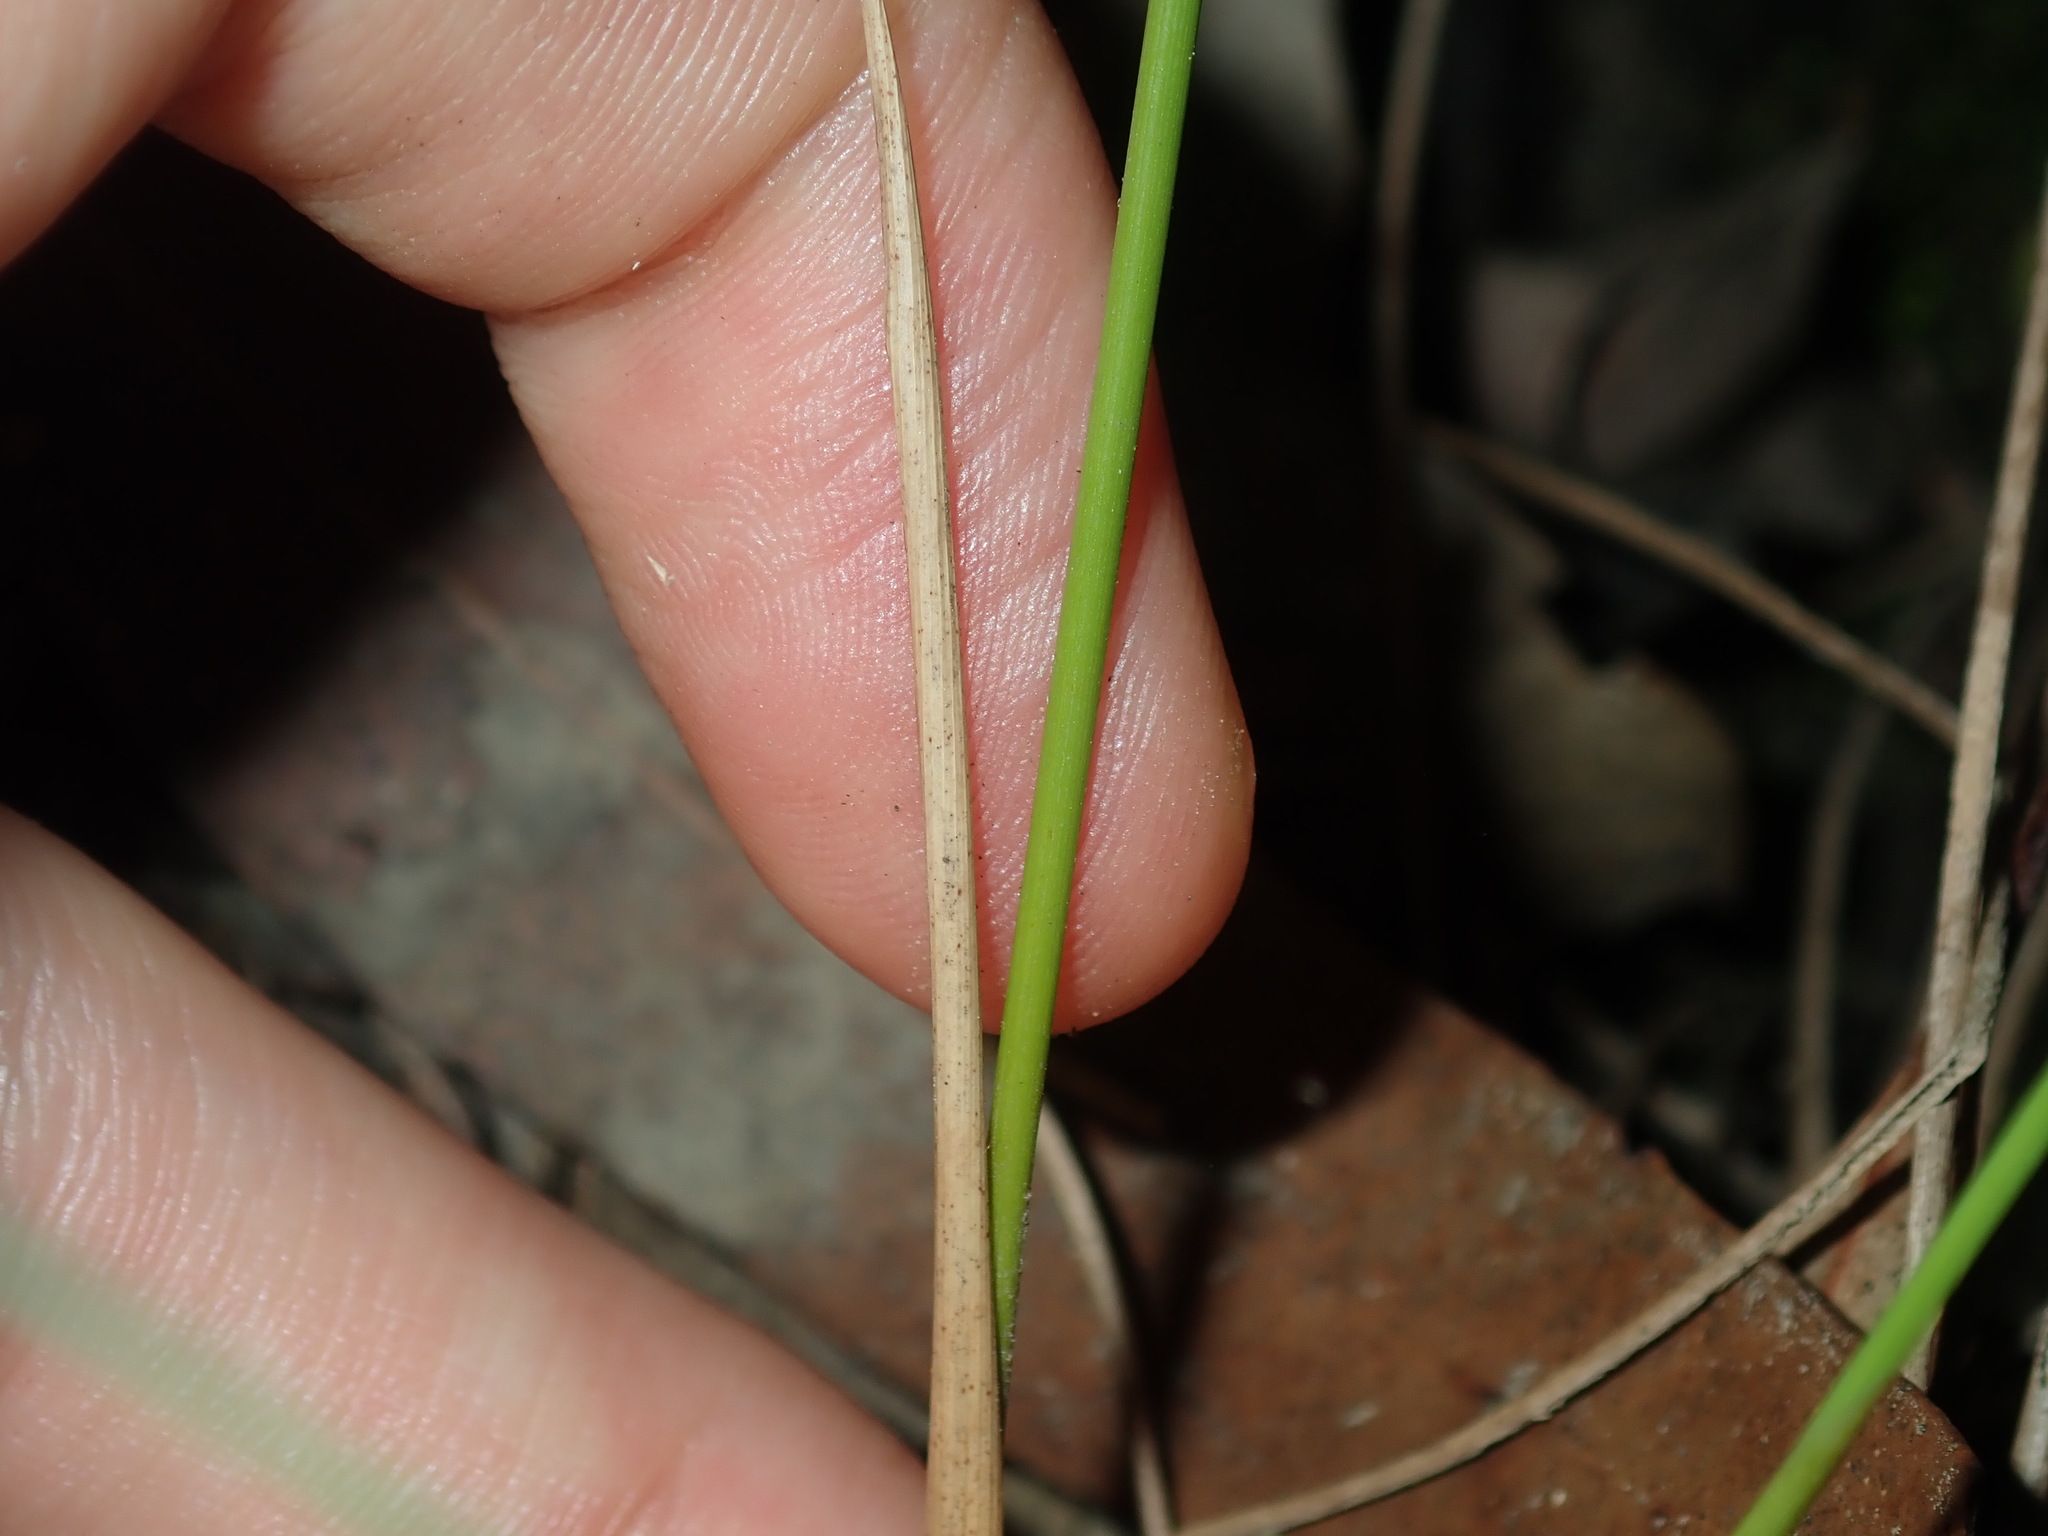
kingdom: Plantae
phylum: Tracheophyta
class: Liliopsida
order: Poales
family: Juncaceae
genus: Juncus
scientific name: Juncus usitatus
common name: Rush
